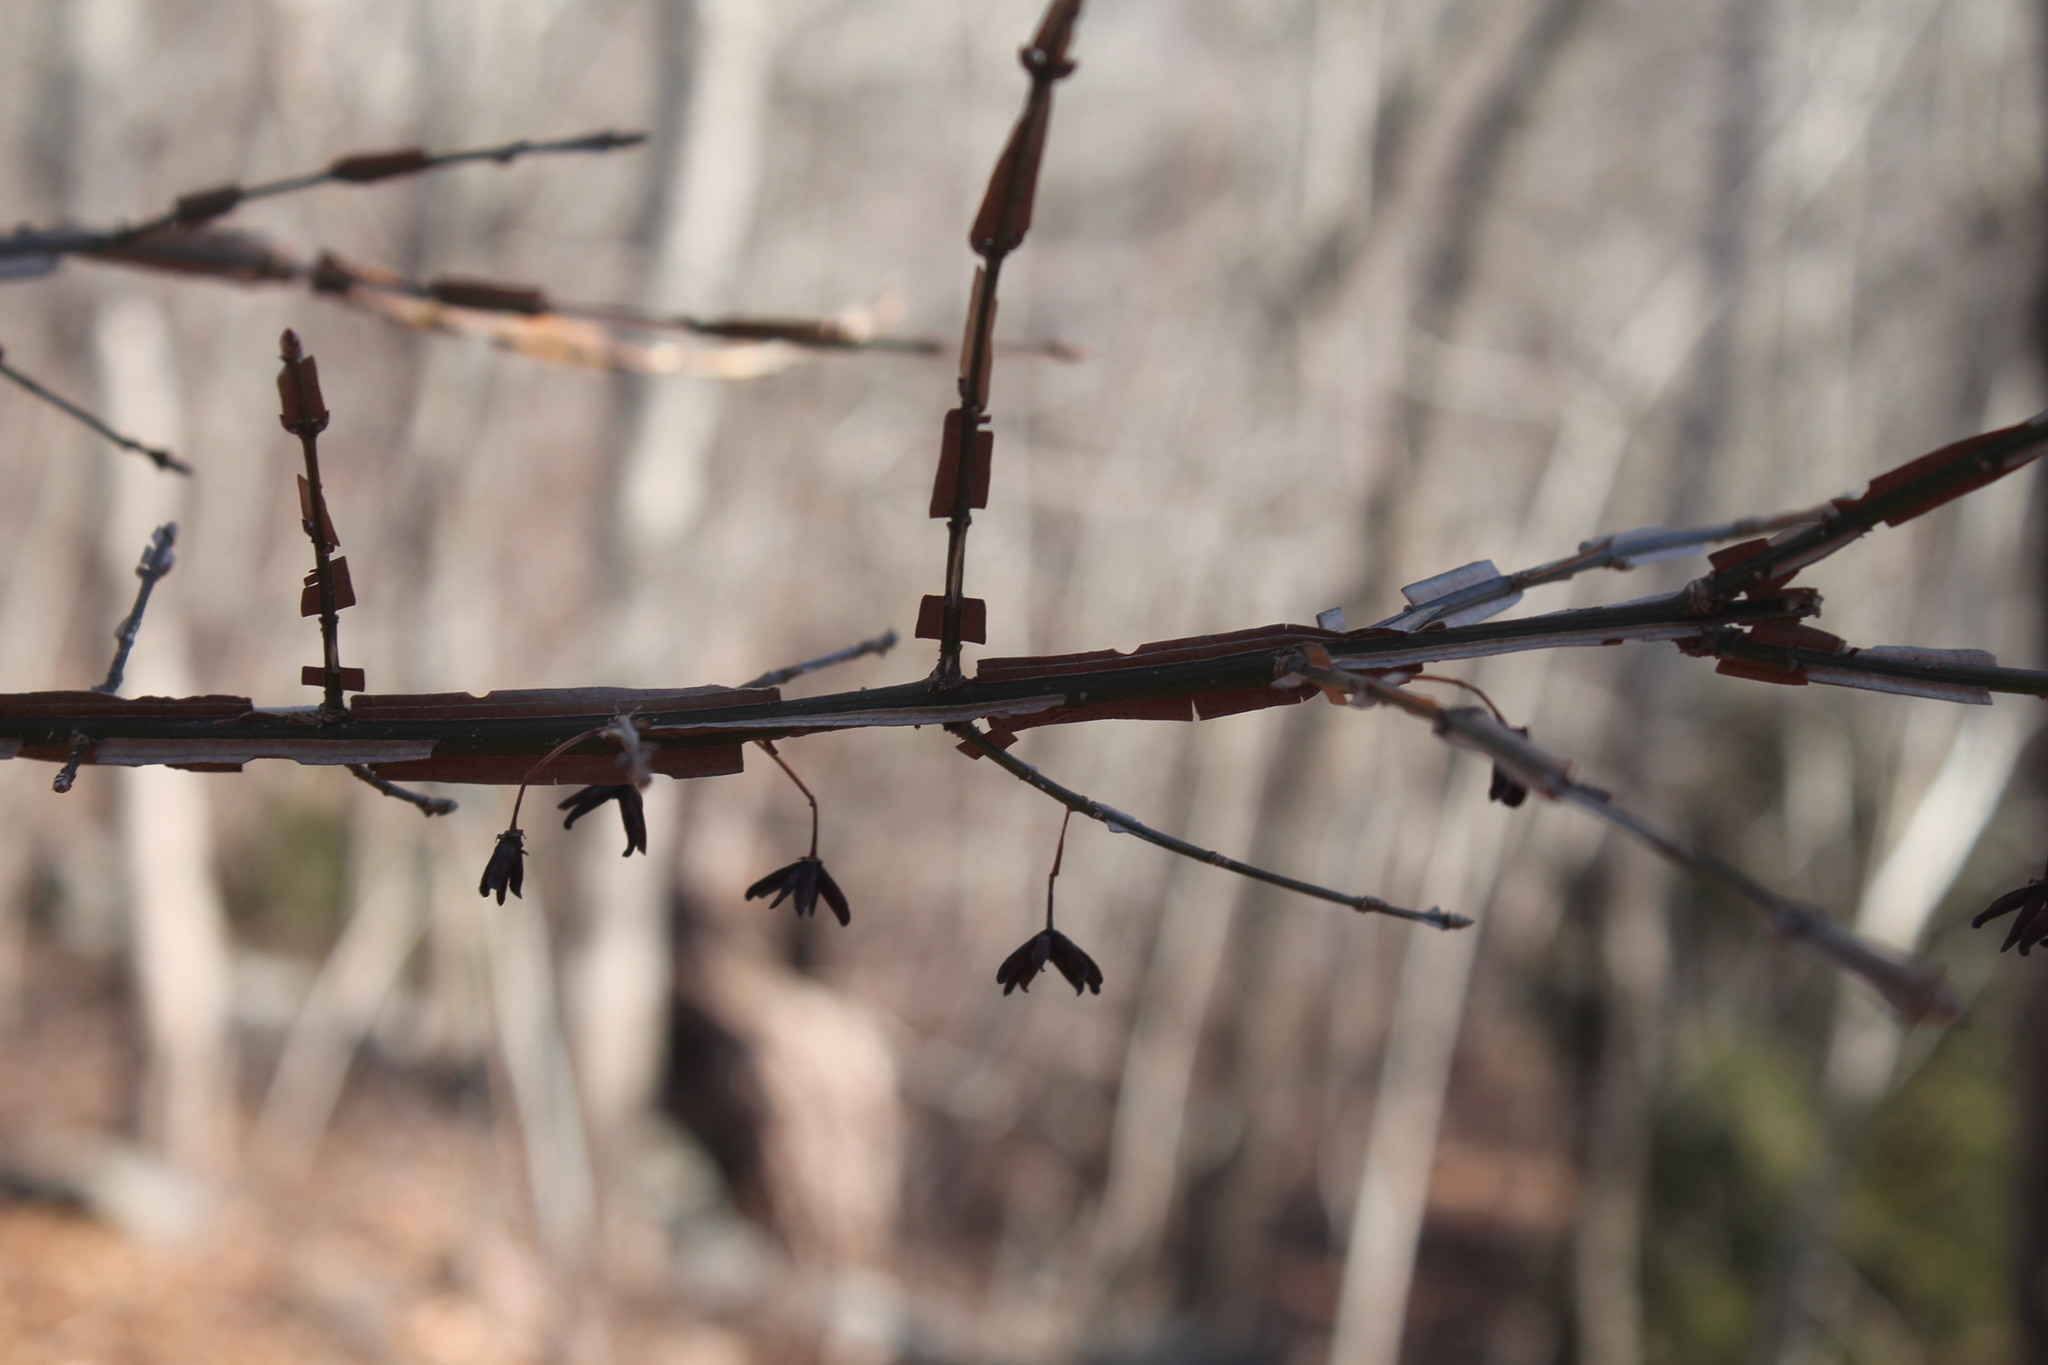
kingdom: Plantae
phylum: Tracheophyta
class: Magnoliopsida
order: Celastrales
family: Celastraceae
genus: Euonymus
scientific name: Euonymus alatus
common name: Winged euonymus
